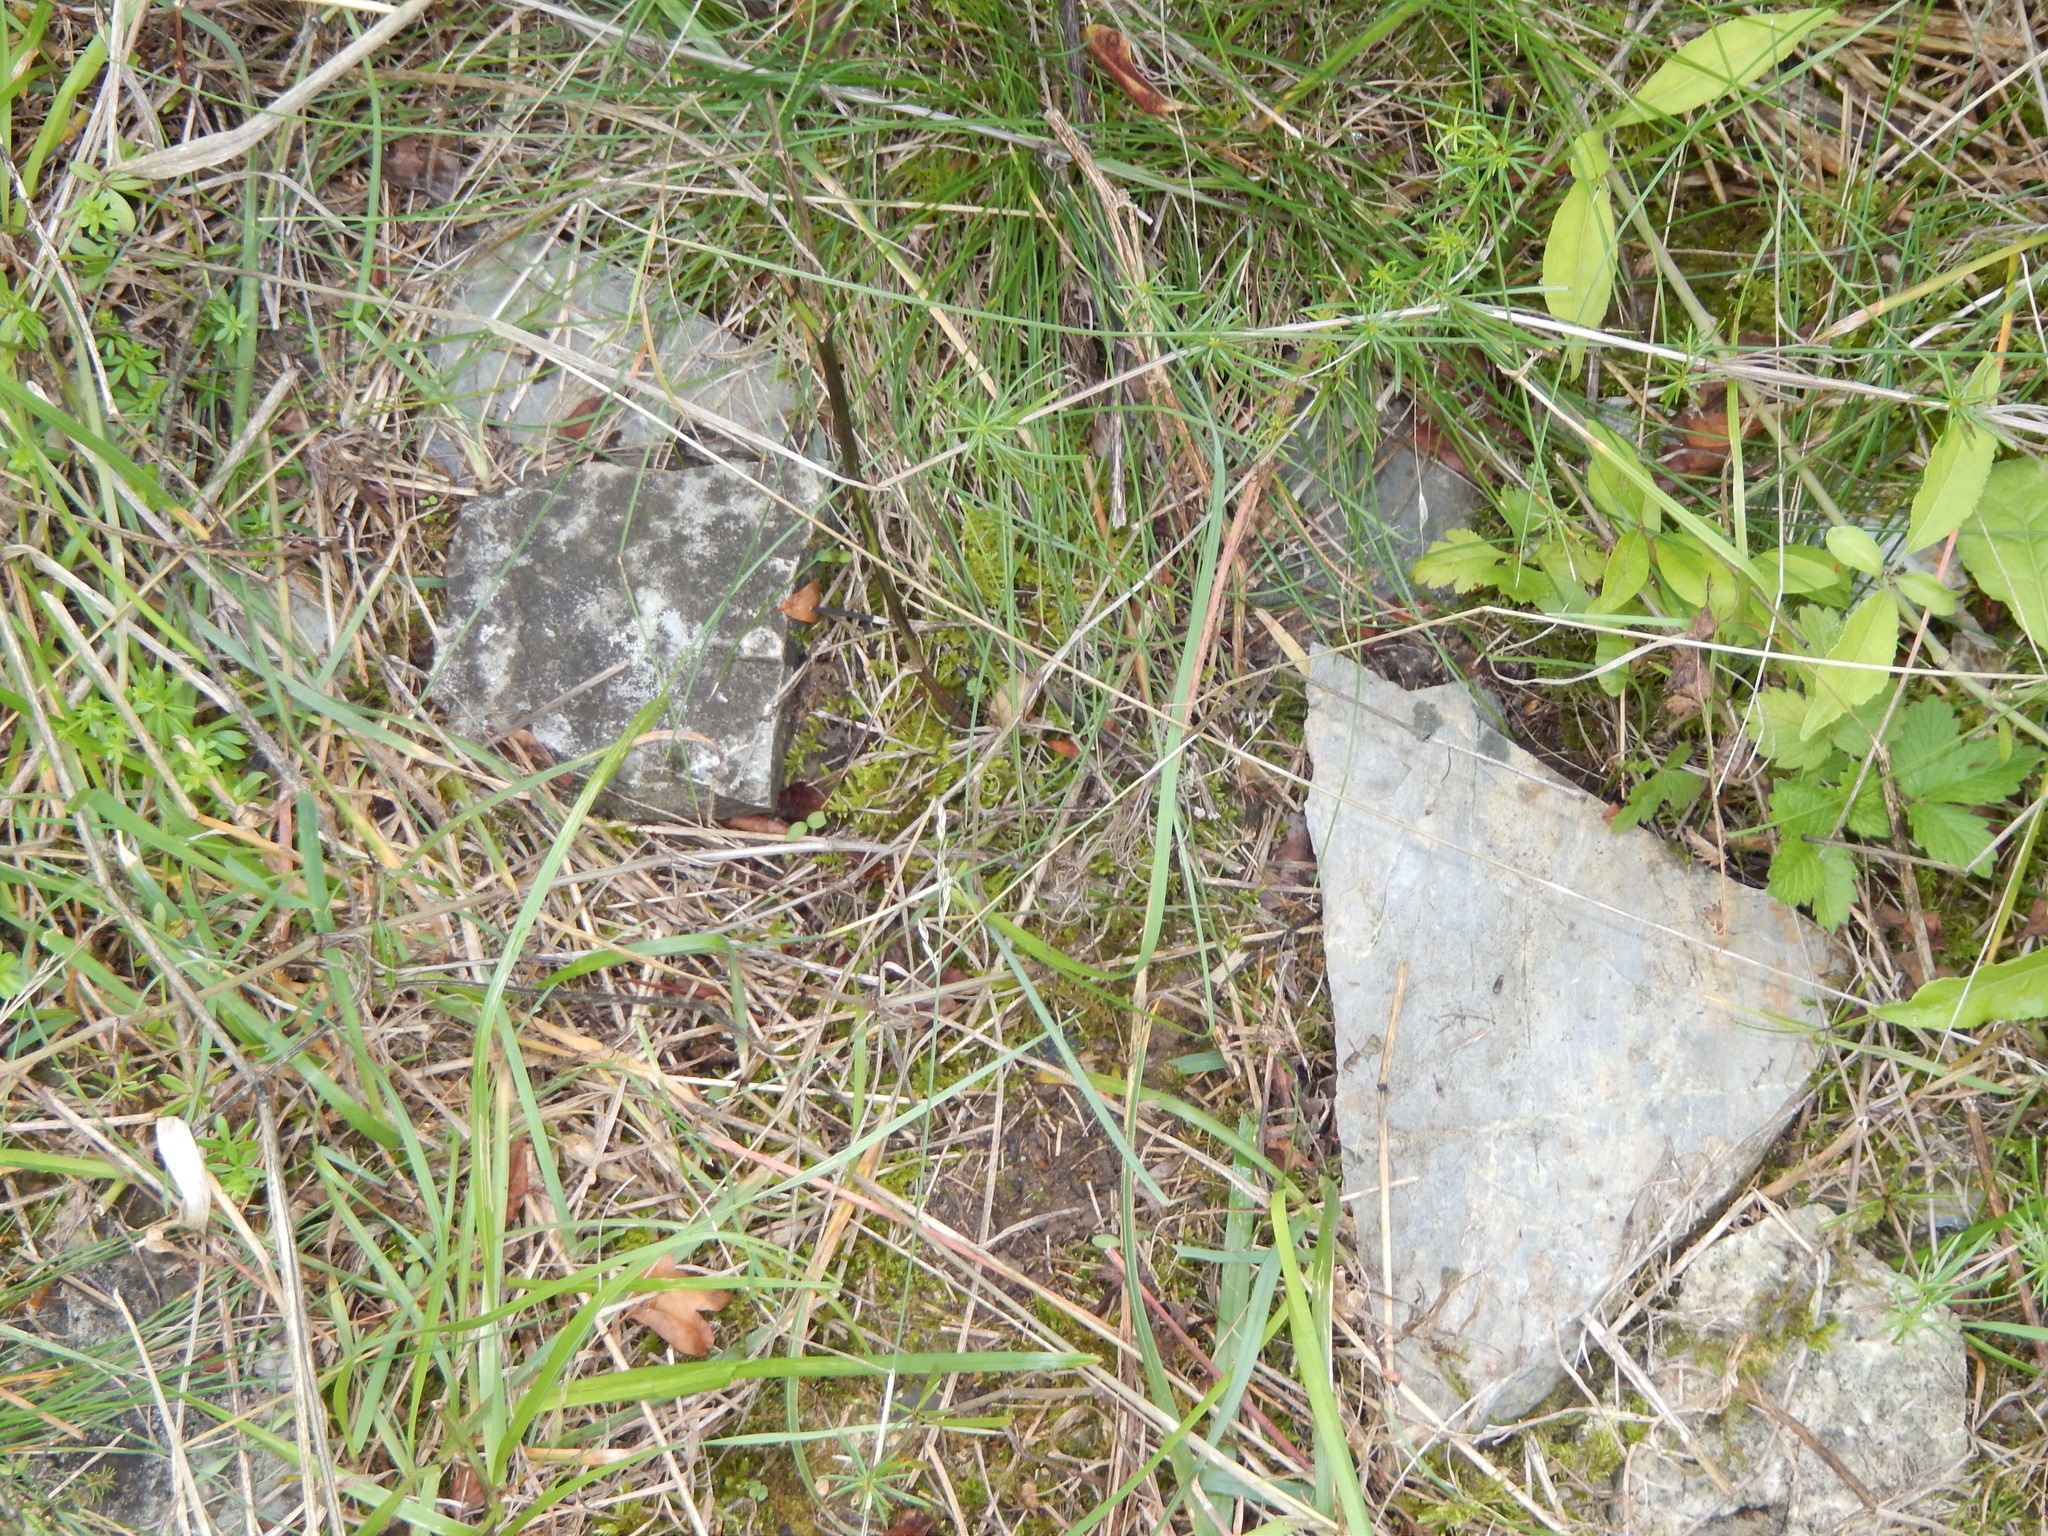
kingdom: Animalia
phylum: Arthropoda
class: Insecta
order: Hymenoptera
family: Formicidae
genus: Solenopsis
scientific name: Solenopsis fugax
